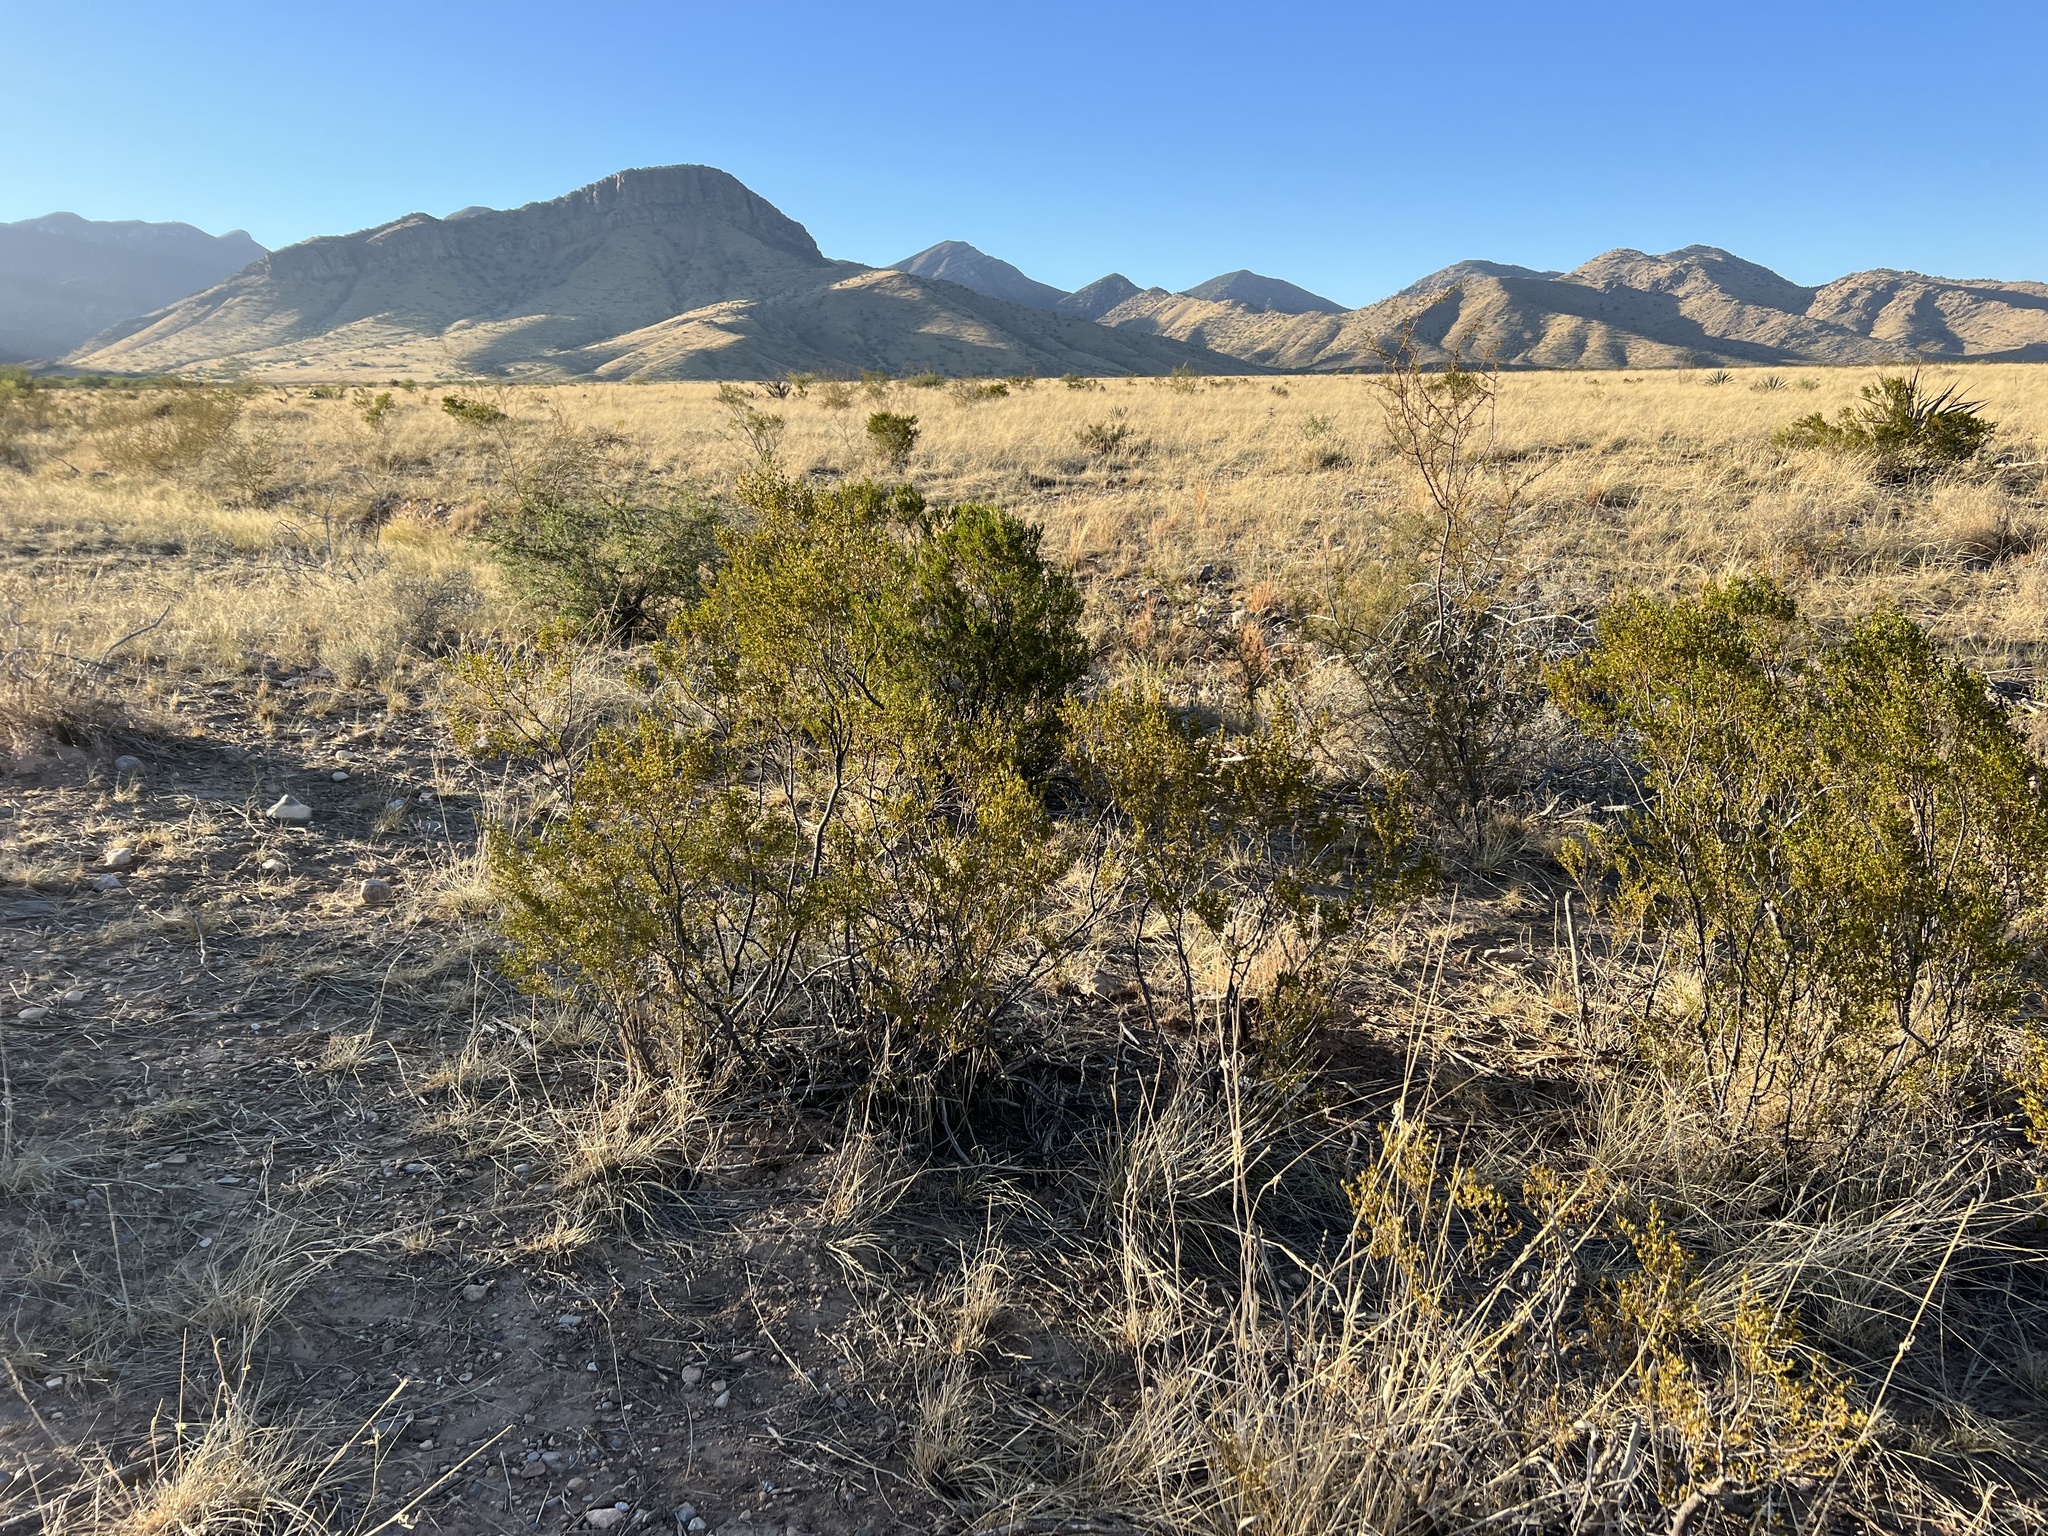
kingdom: Plantae
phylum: Tracheophyta
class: Magnoliopsida
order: Zygophyllales
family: Zygophyllaceae
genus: Larrea
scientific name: Larrea tridentata
